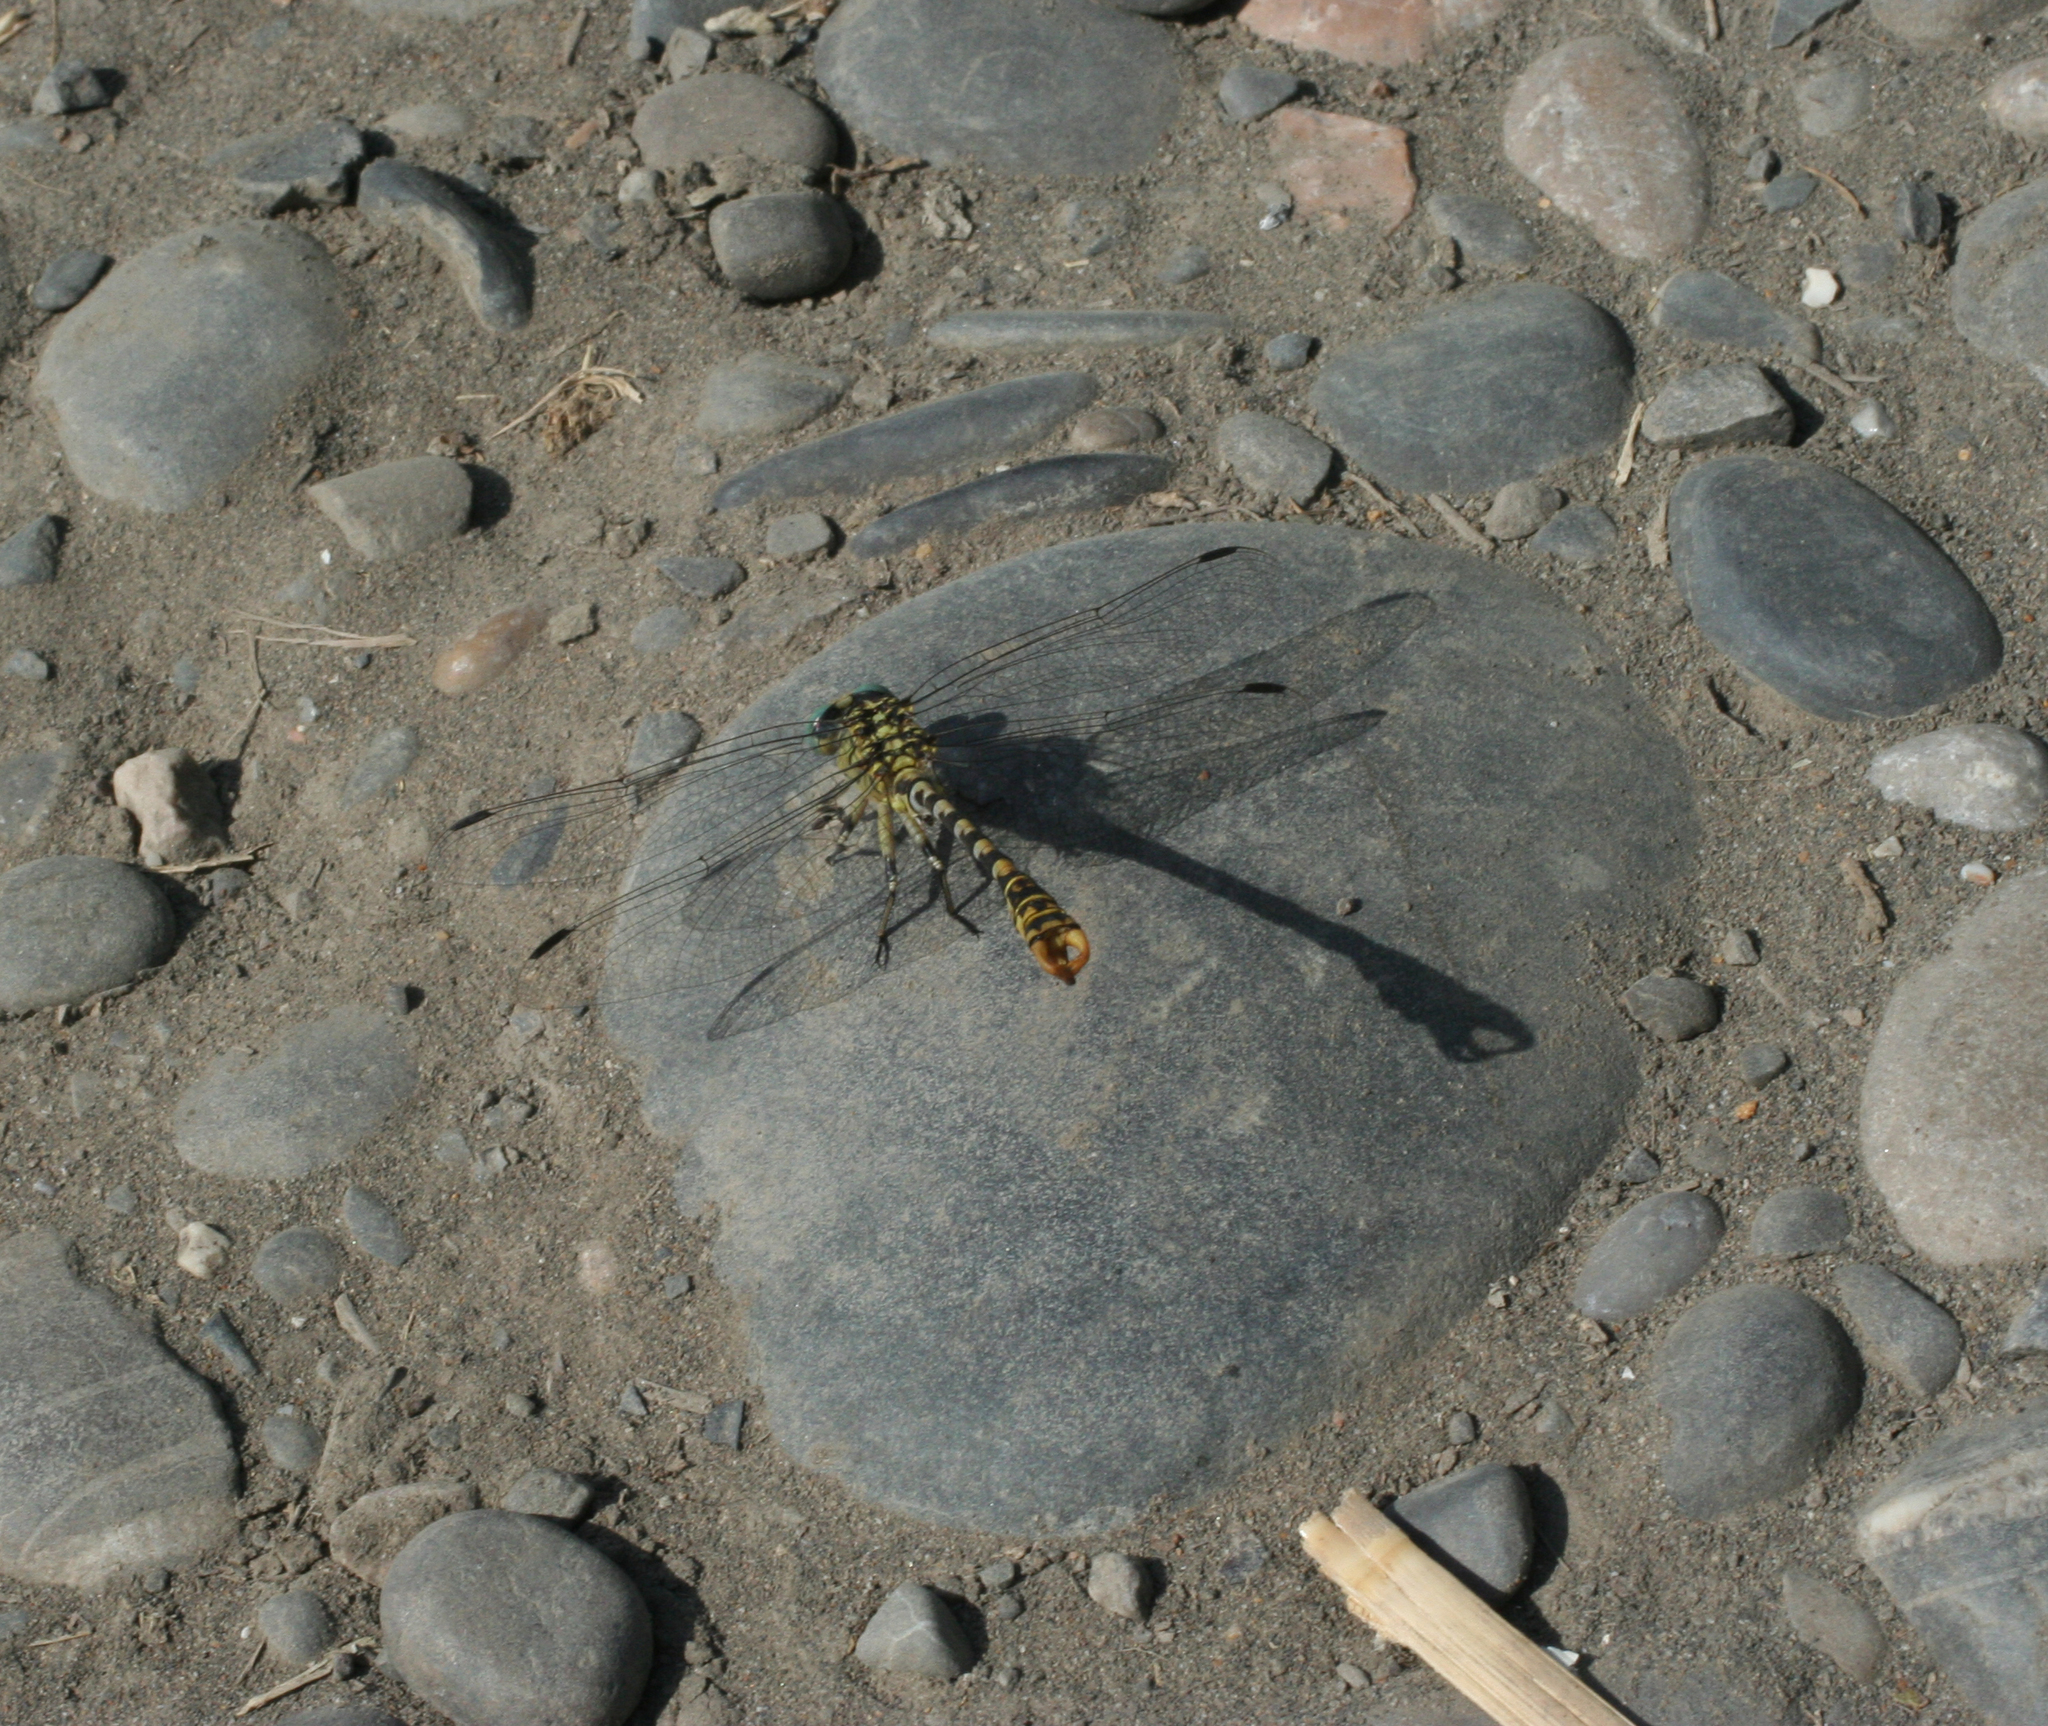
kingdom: Animalia
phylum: Arthropoda
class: Insecta
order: Odonata
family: Gomphidae
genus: Onychogomphus
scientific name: Onychogomphus forcipatus
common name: Small pincertail
